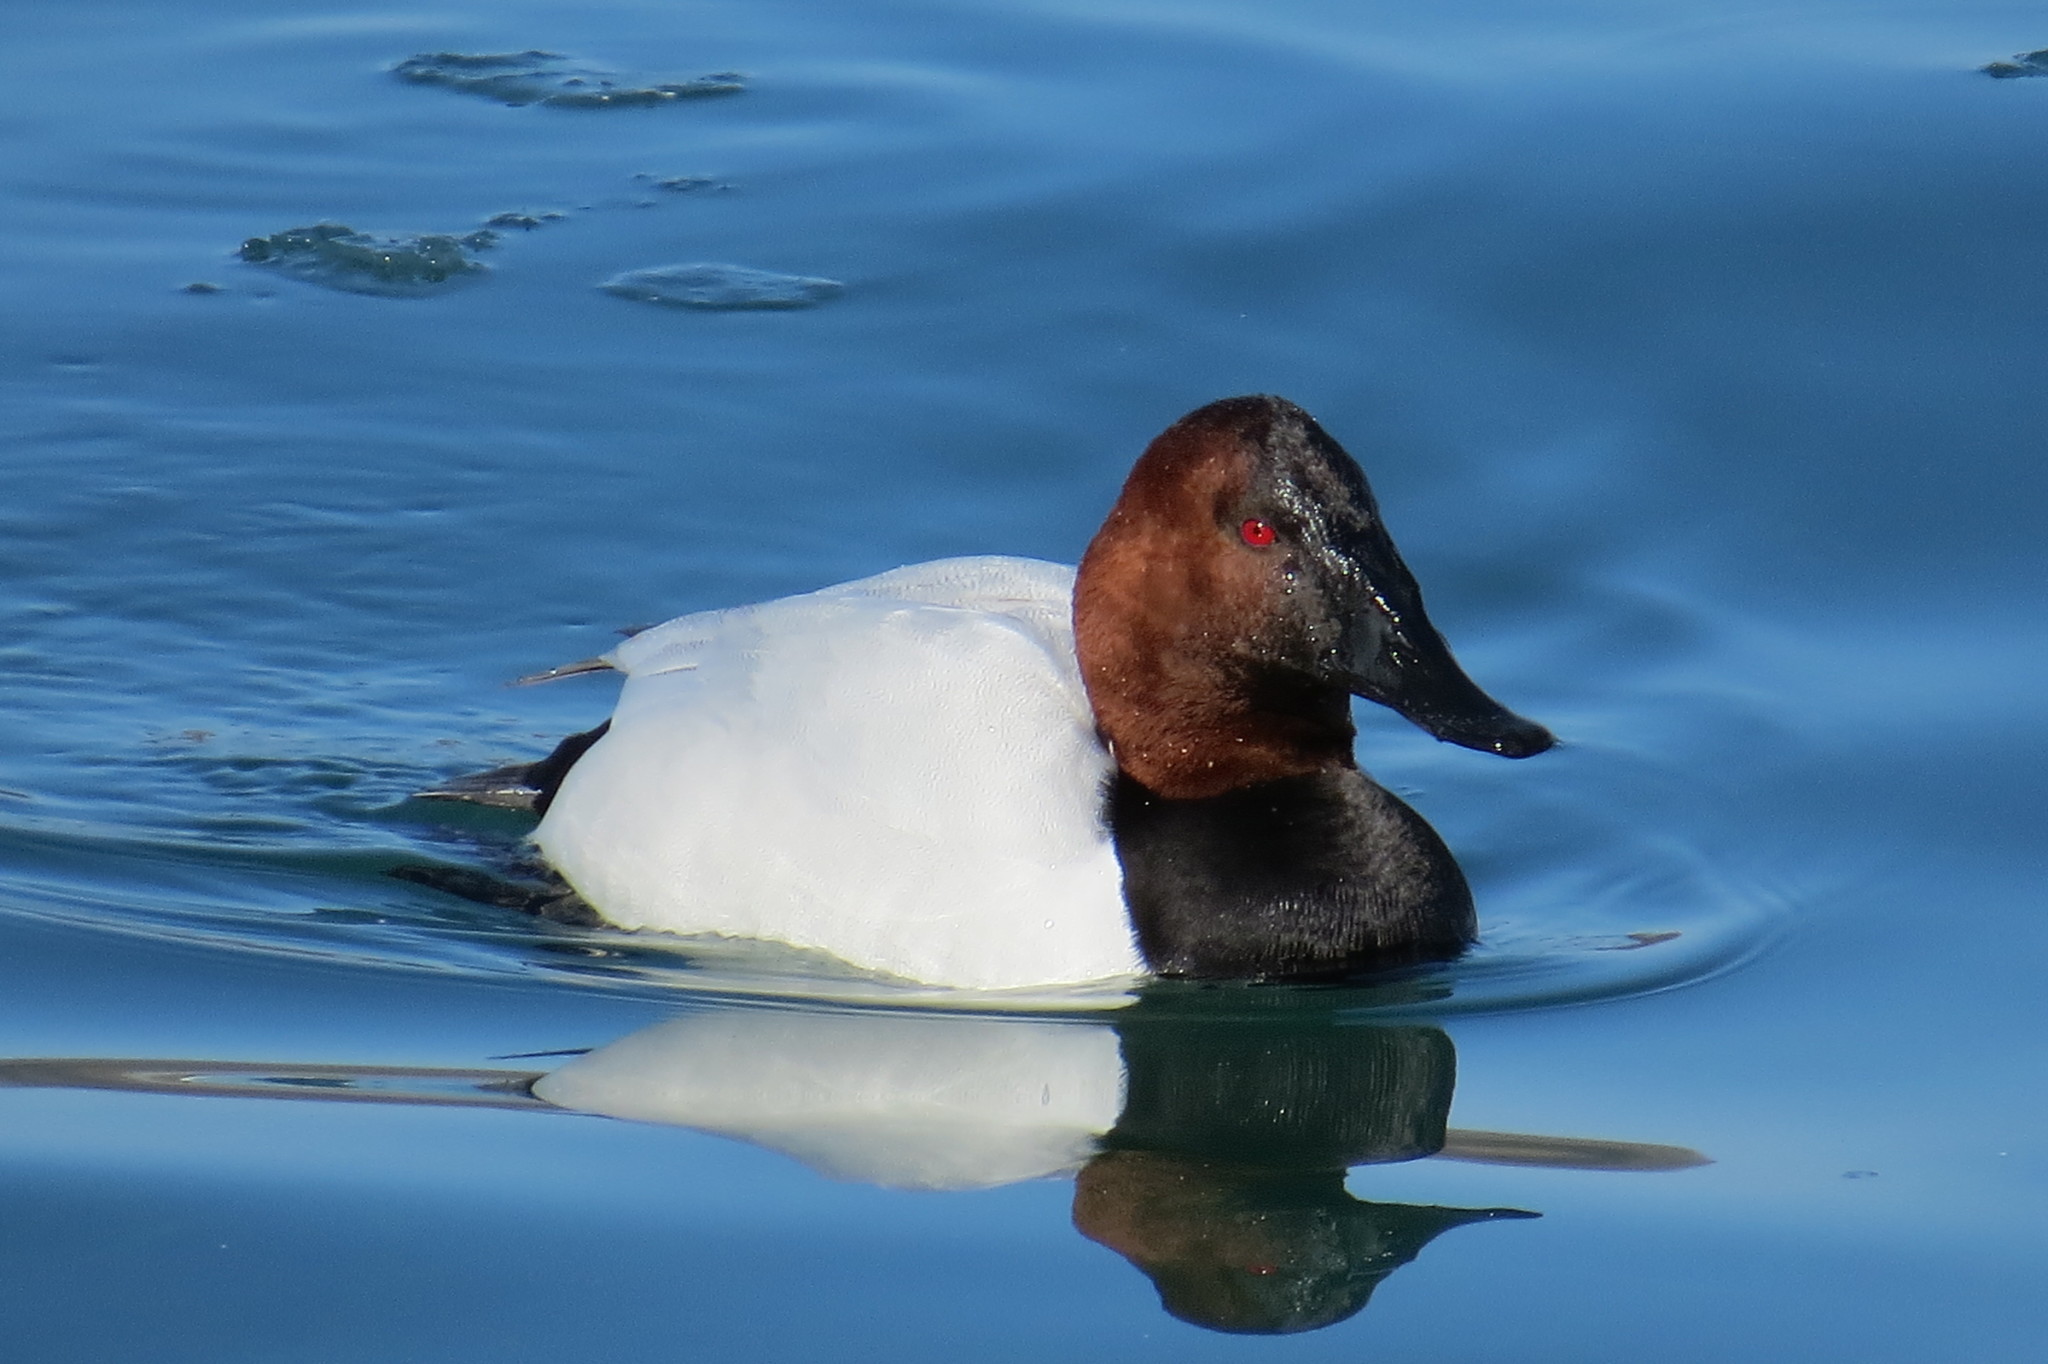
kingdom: Animalia
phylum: Chordata
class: Aves
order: Anseriformes
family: Anatidae
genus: Aythya
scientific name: Aythya valisineria
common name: Canvasback
